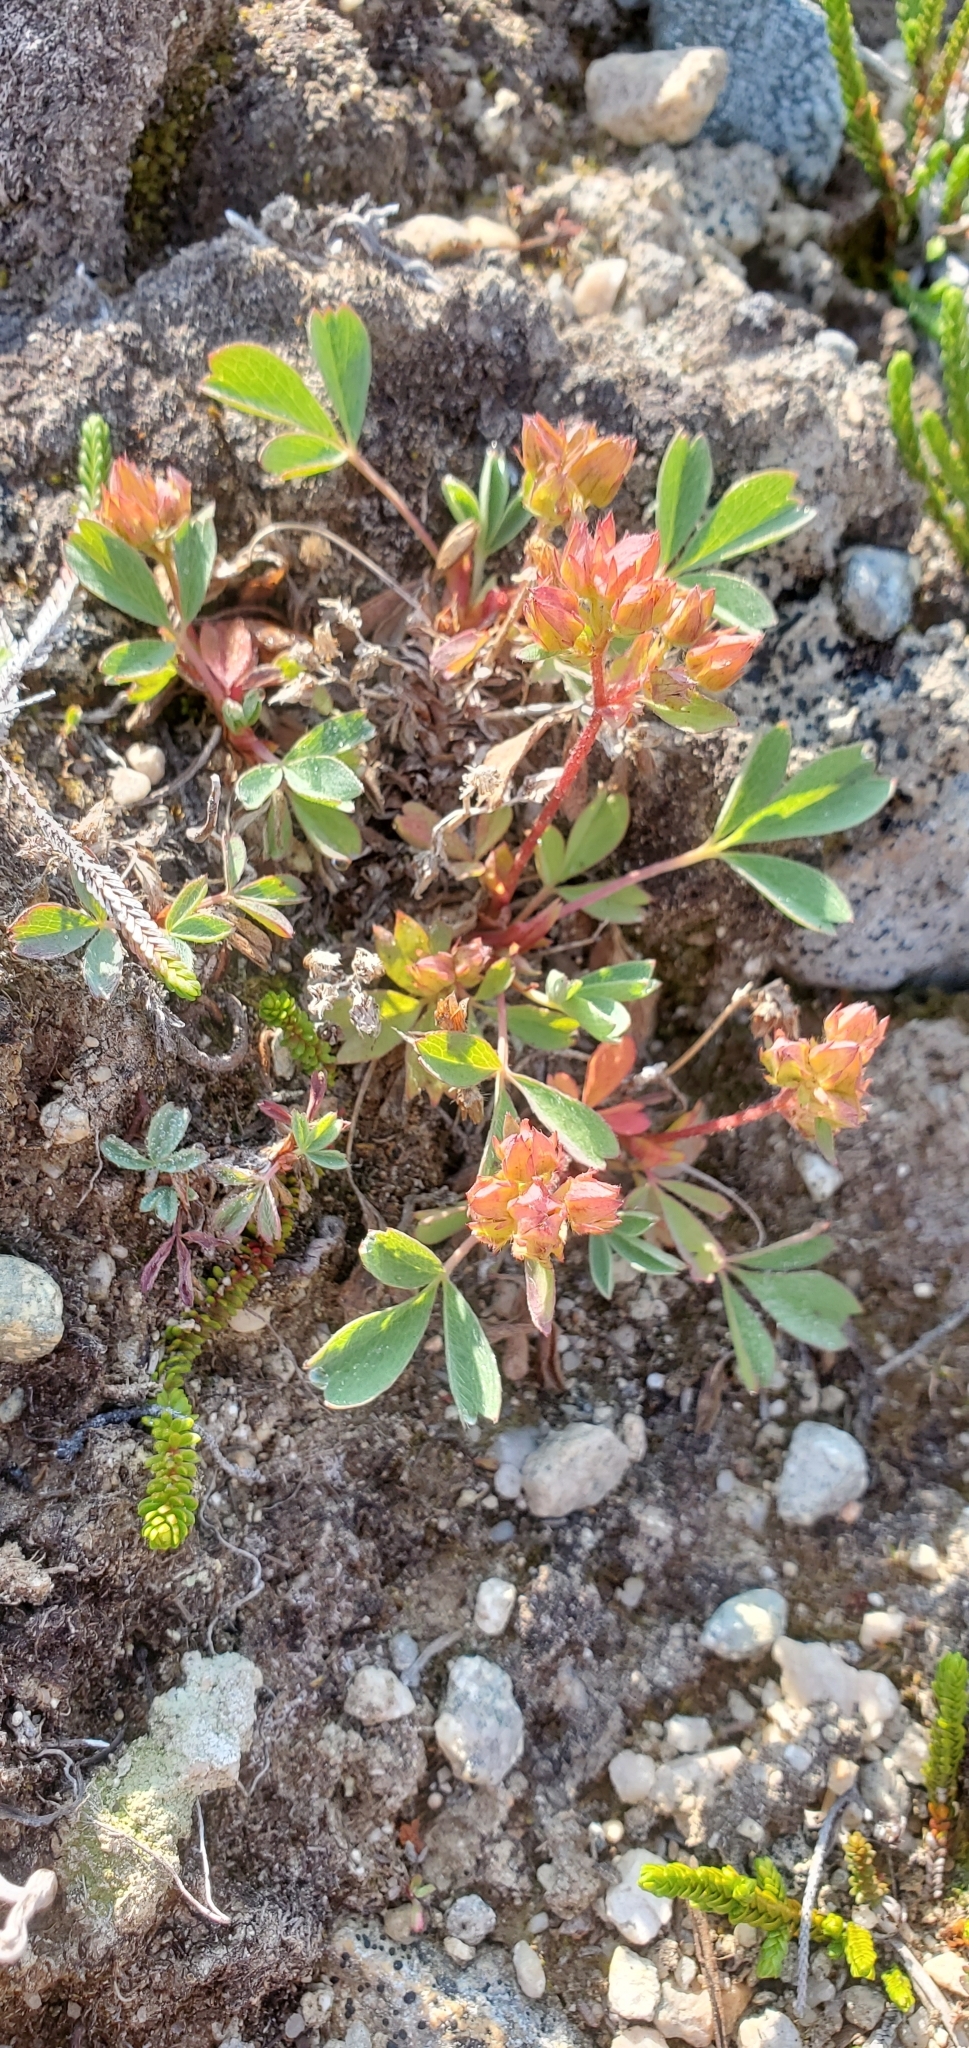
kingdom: Plantae
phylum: Tracheophyta
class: Magnoliopsida
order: Rosales
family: Rosaceae
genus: Sibbaldia
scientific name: Sibbaldia procumbens
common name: Creeping sibbaldia
